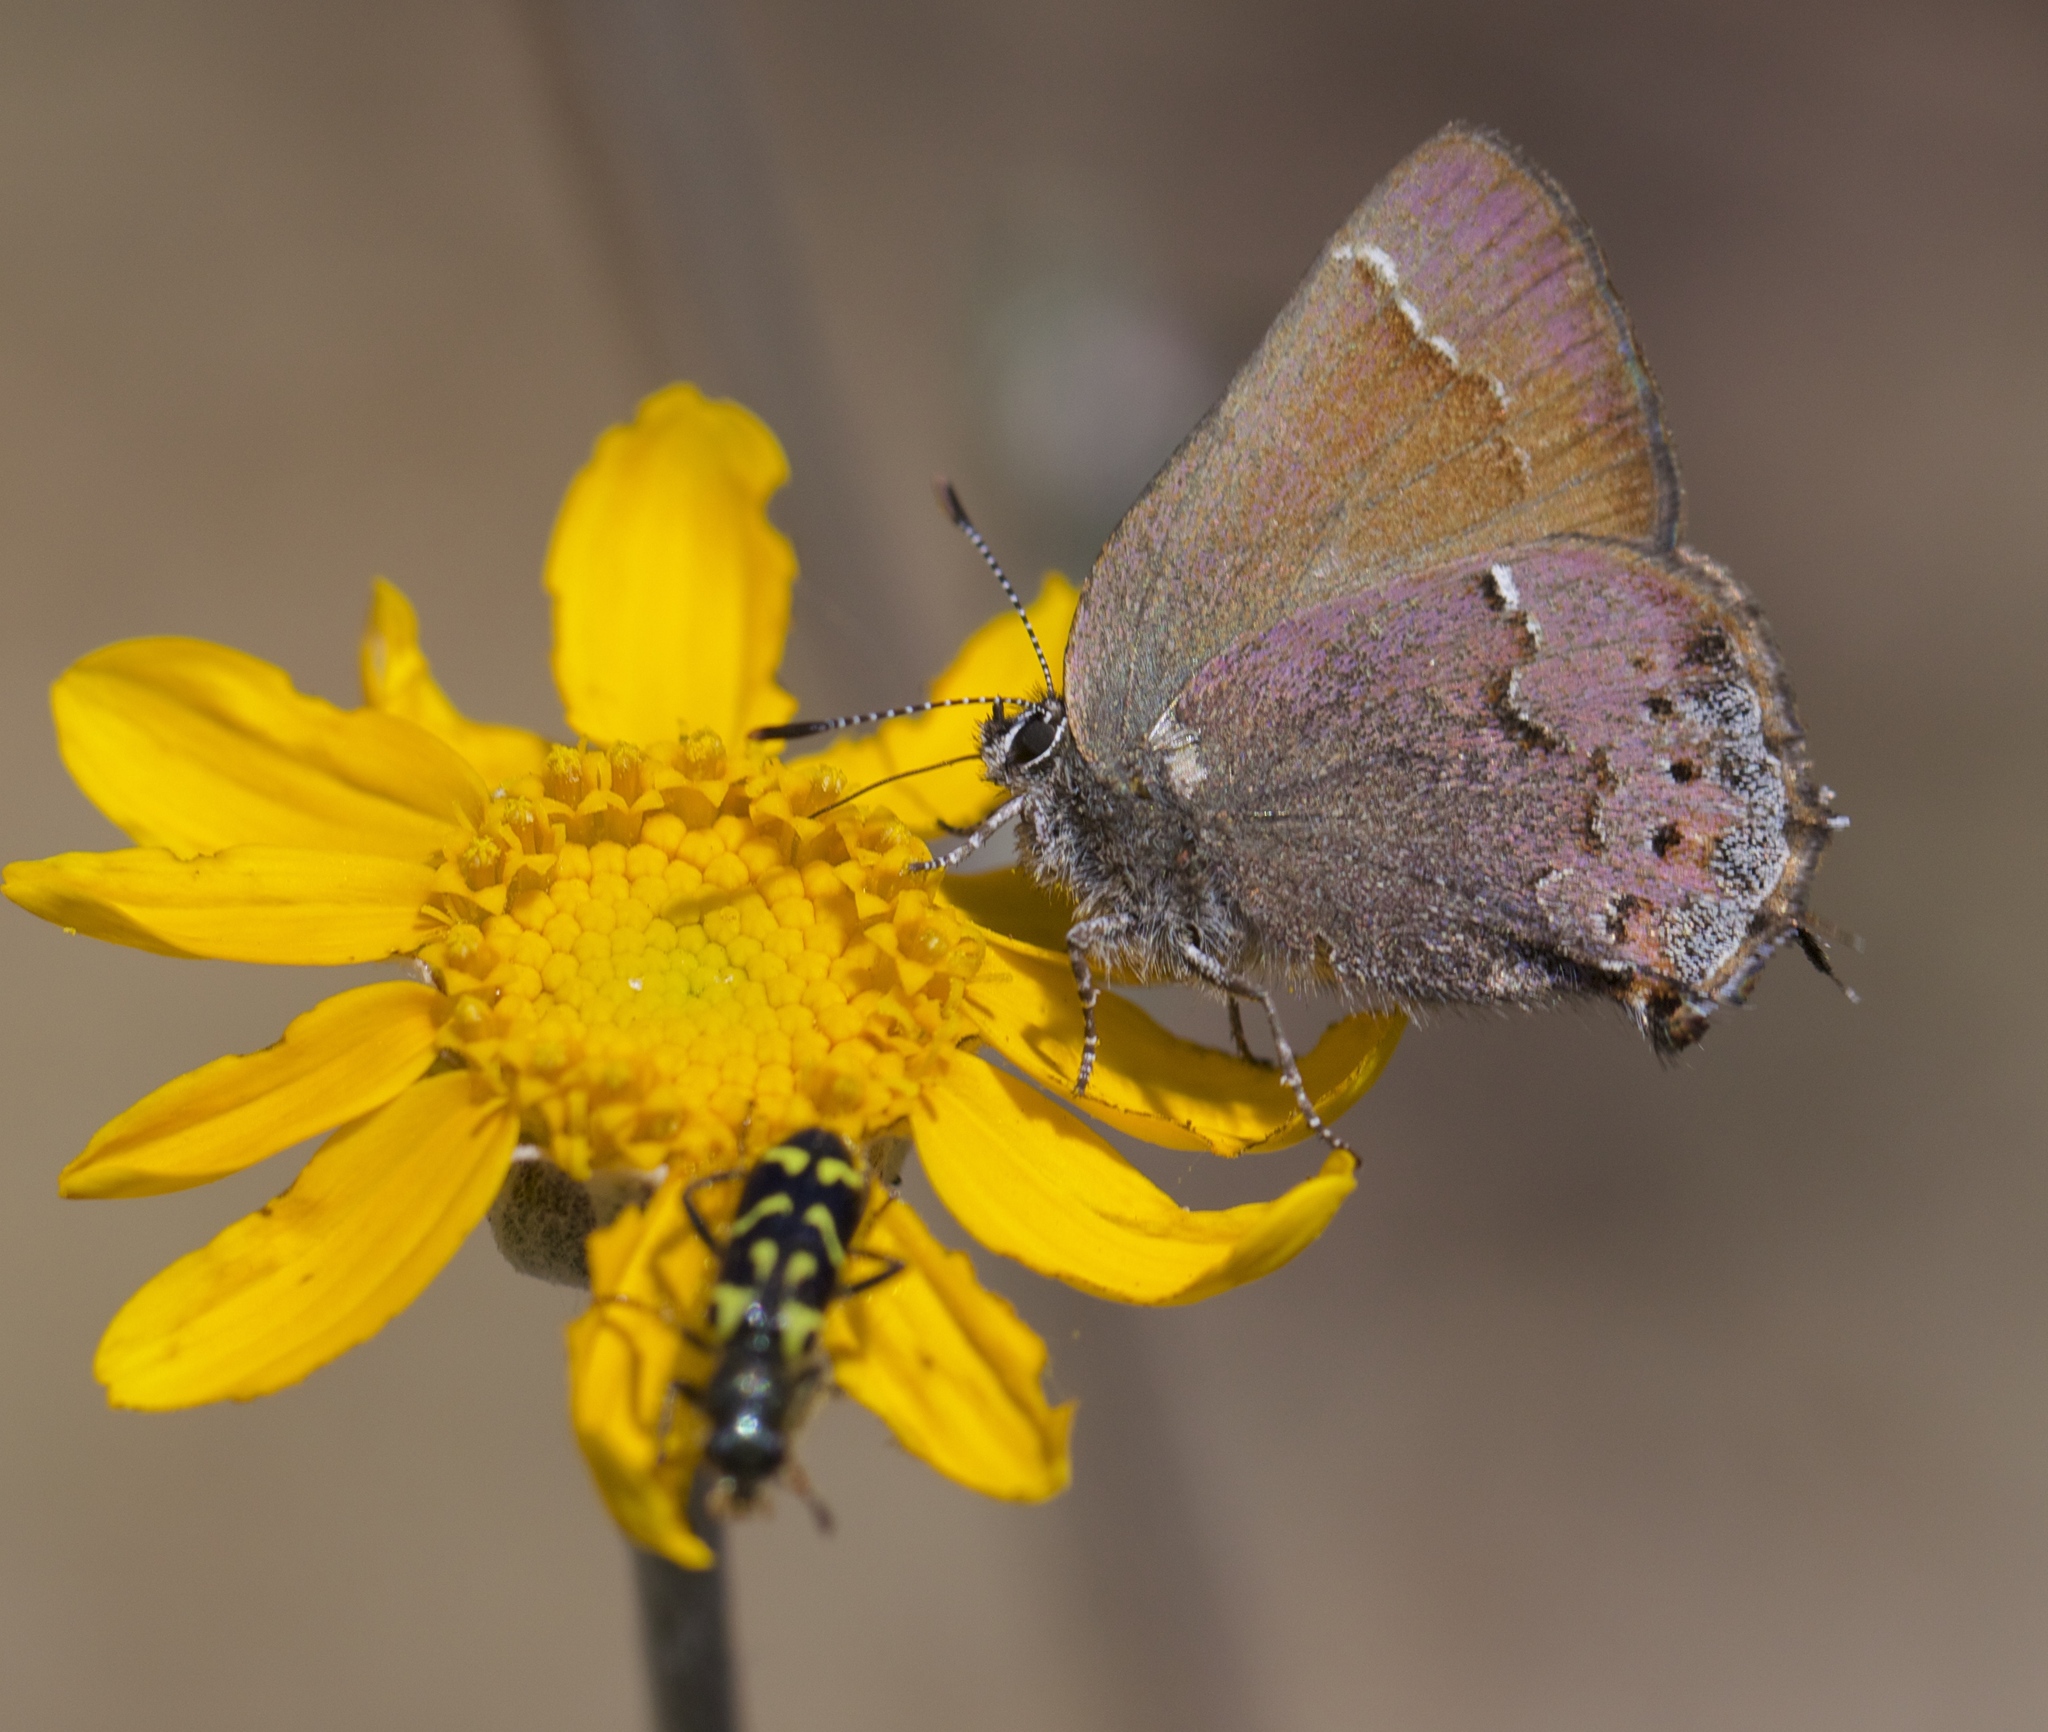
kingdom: Animalia
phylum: Arthropoda
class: Insecta
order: Lepidoptera
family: Lycaenidae
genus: Callophrys
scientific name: Callophrys muiri
